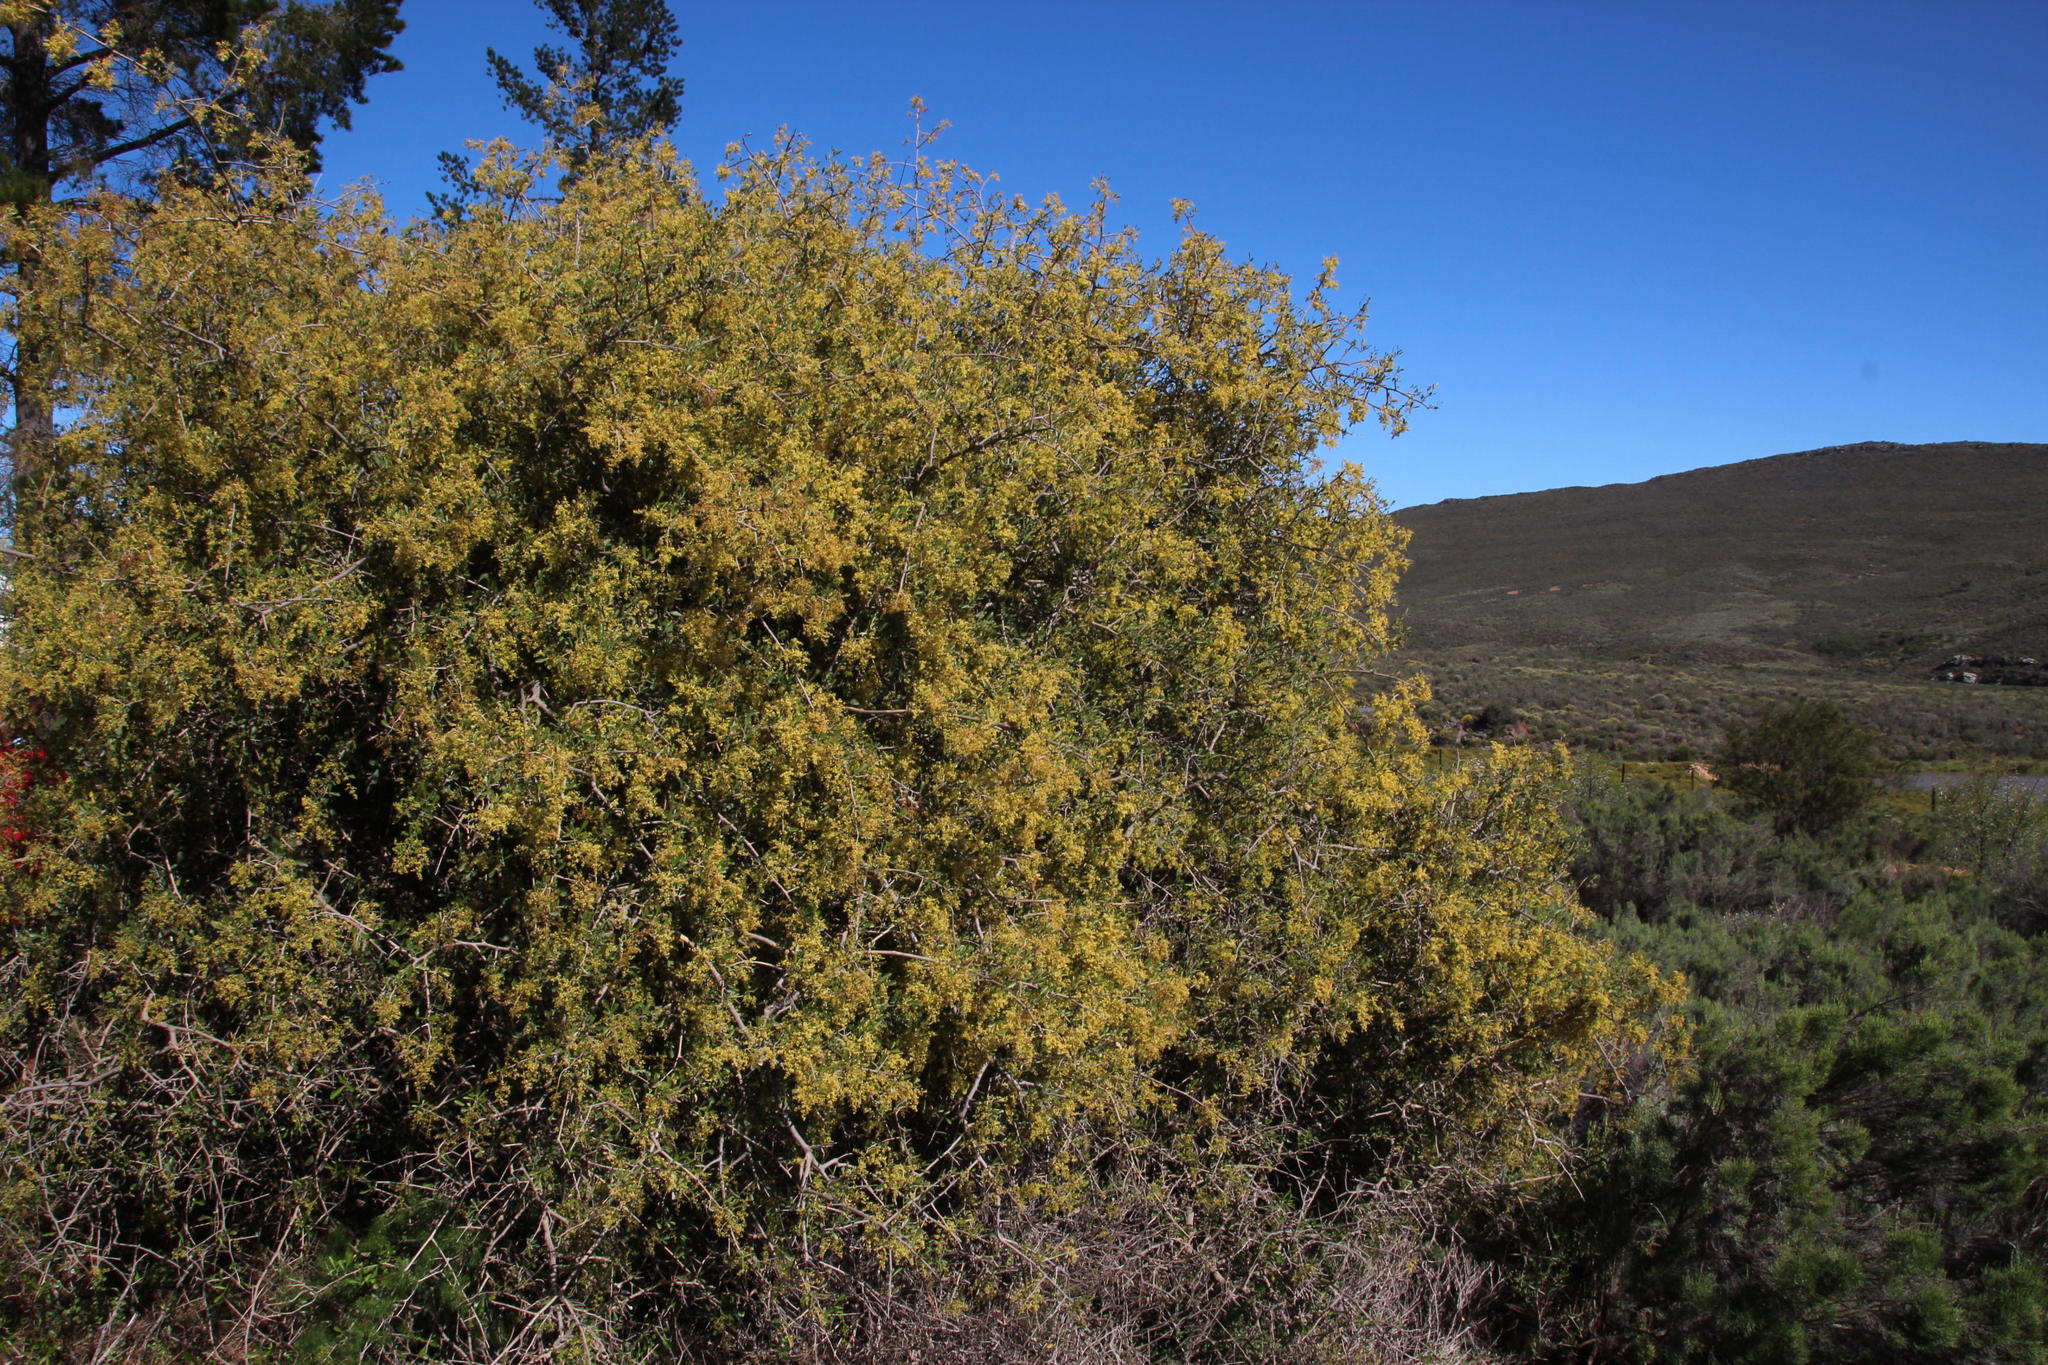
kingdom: Plantae
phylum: Tracheophyta
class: Magnoliopsida
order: Sapindales
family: Anacardiaceae
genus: Searsia
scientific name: Searsia longispina
